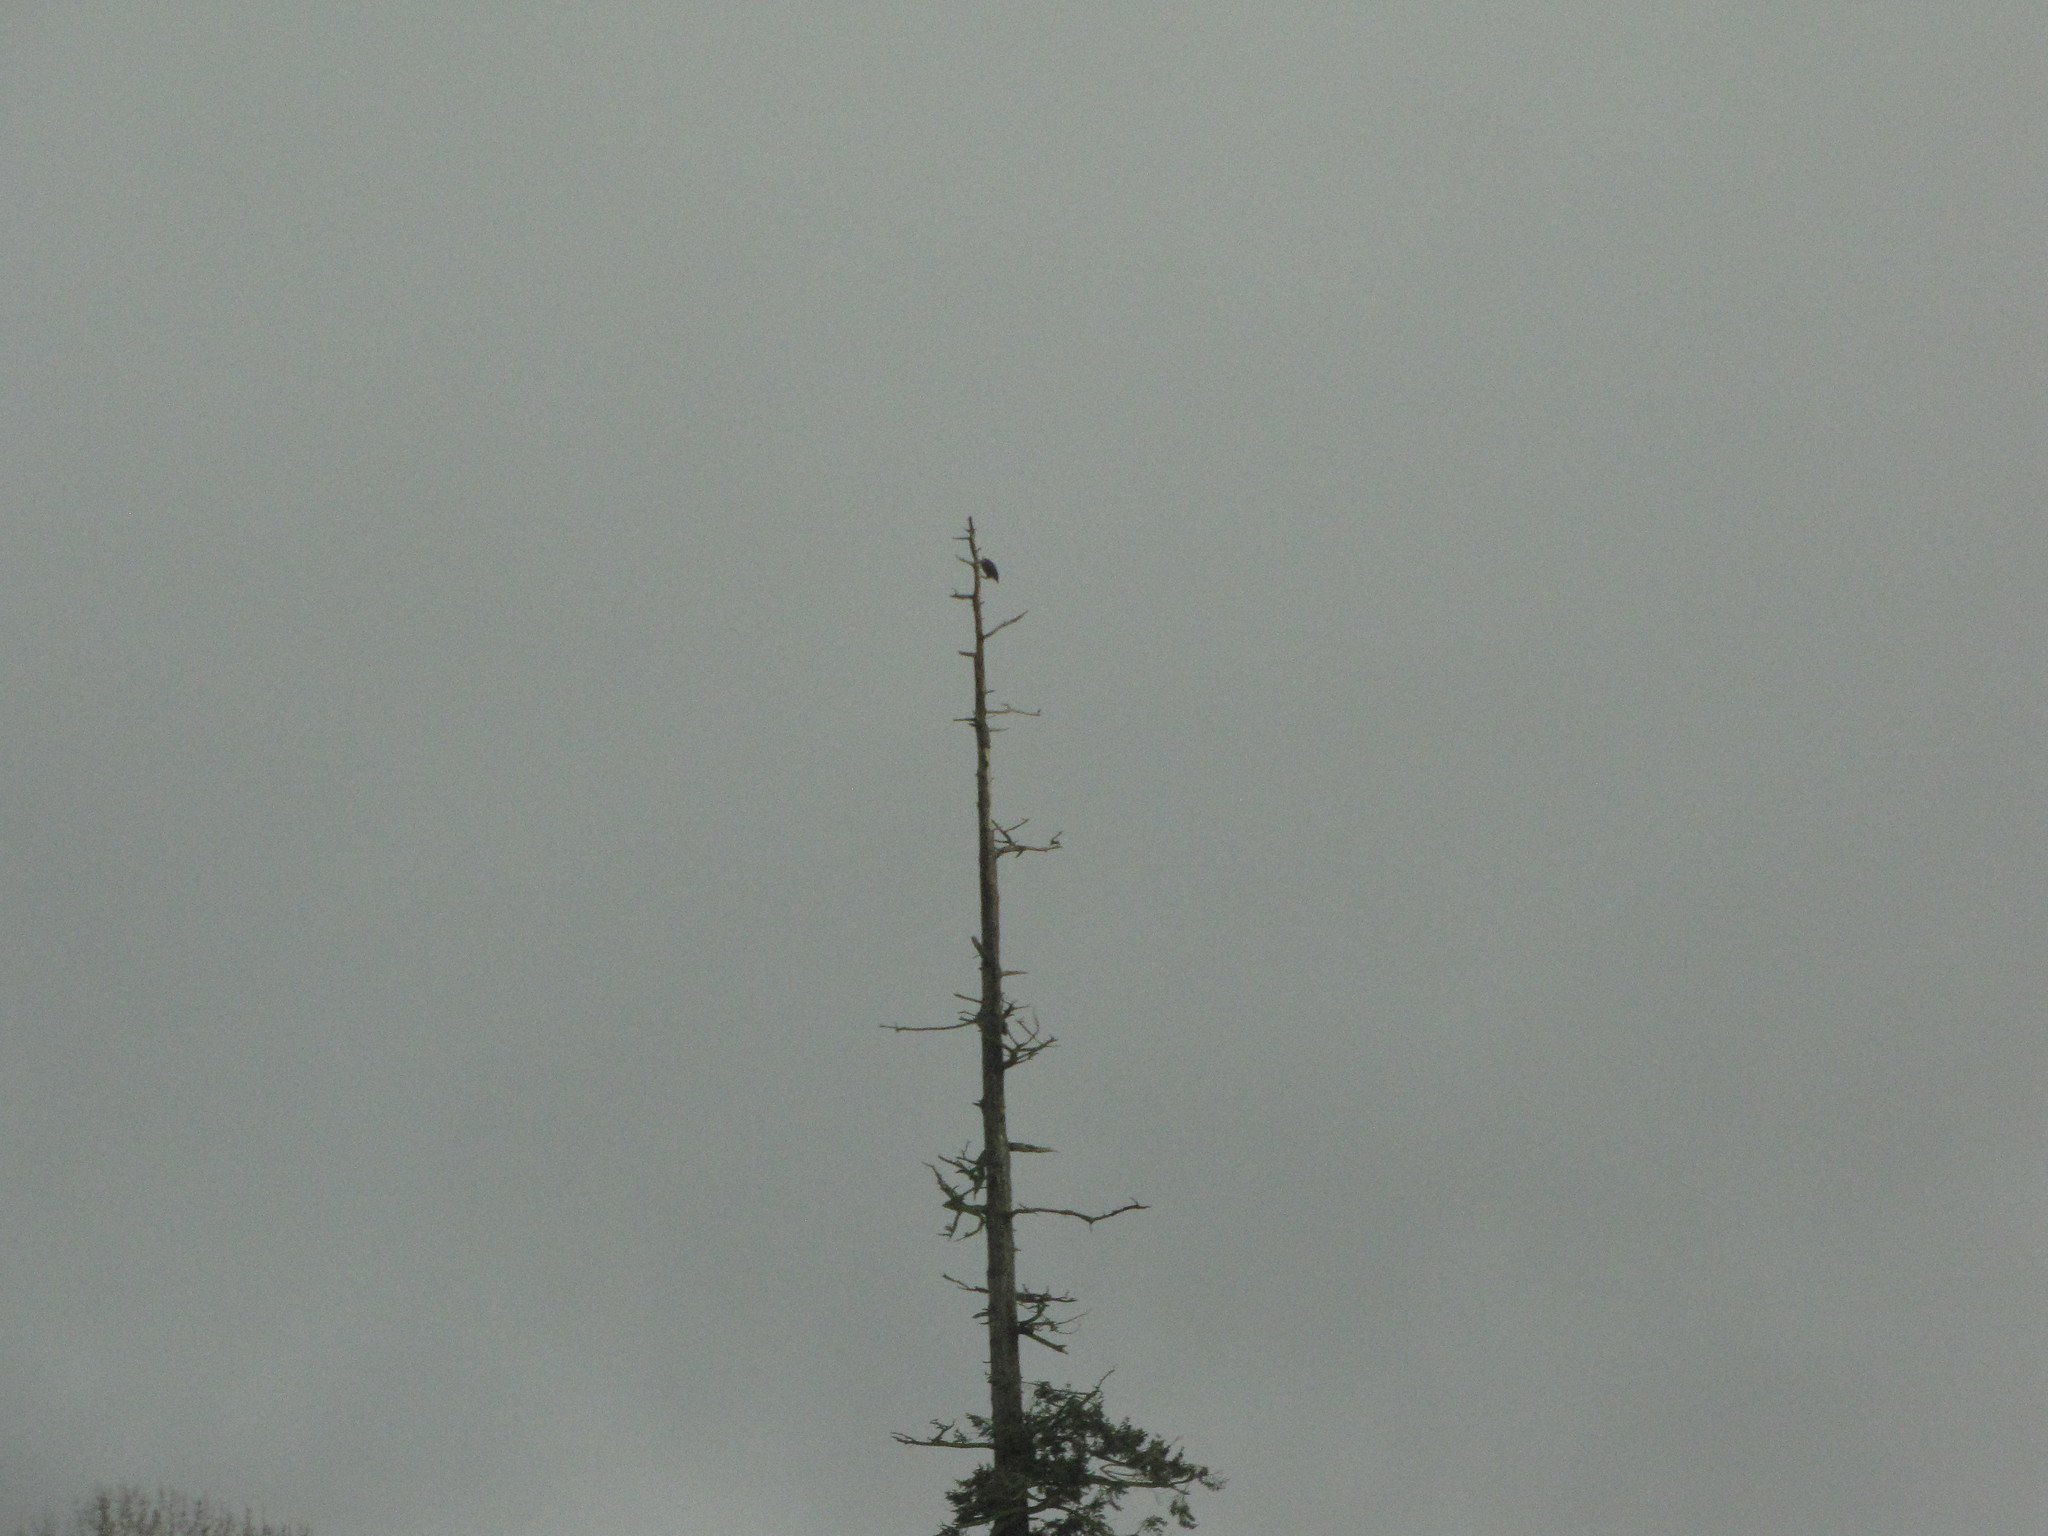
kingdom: Animalia
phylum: Chordata
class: Aves
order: Accipitriformes
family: Accipitridae
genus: Haliaeetus
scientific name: Haliaeetus leucocephalus
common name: Bald eagle
